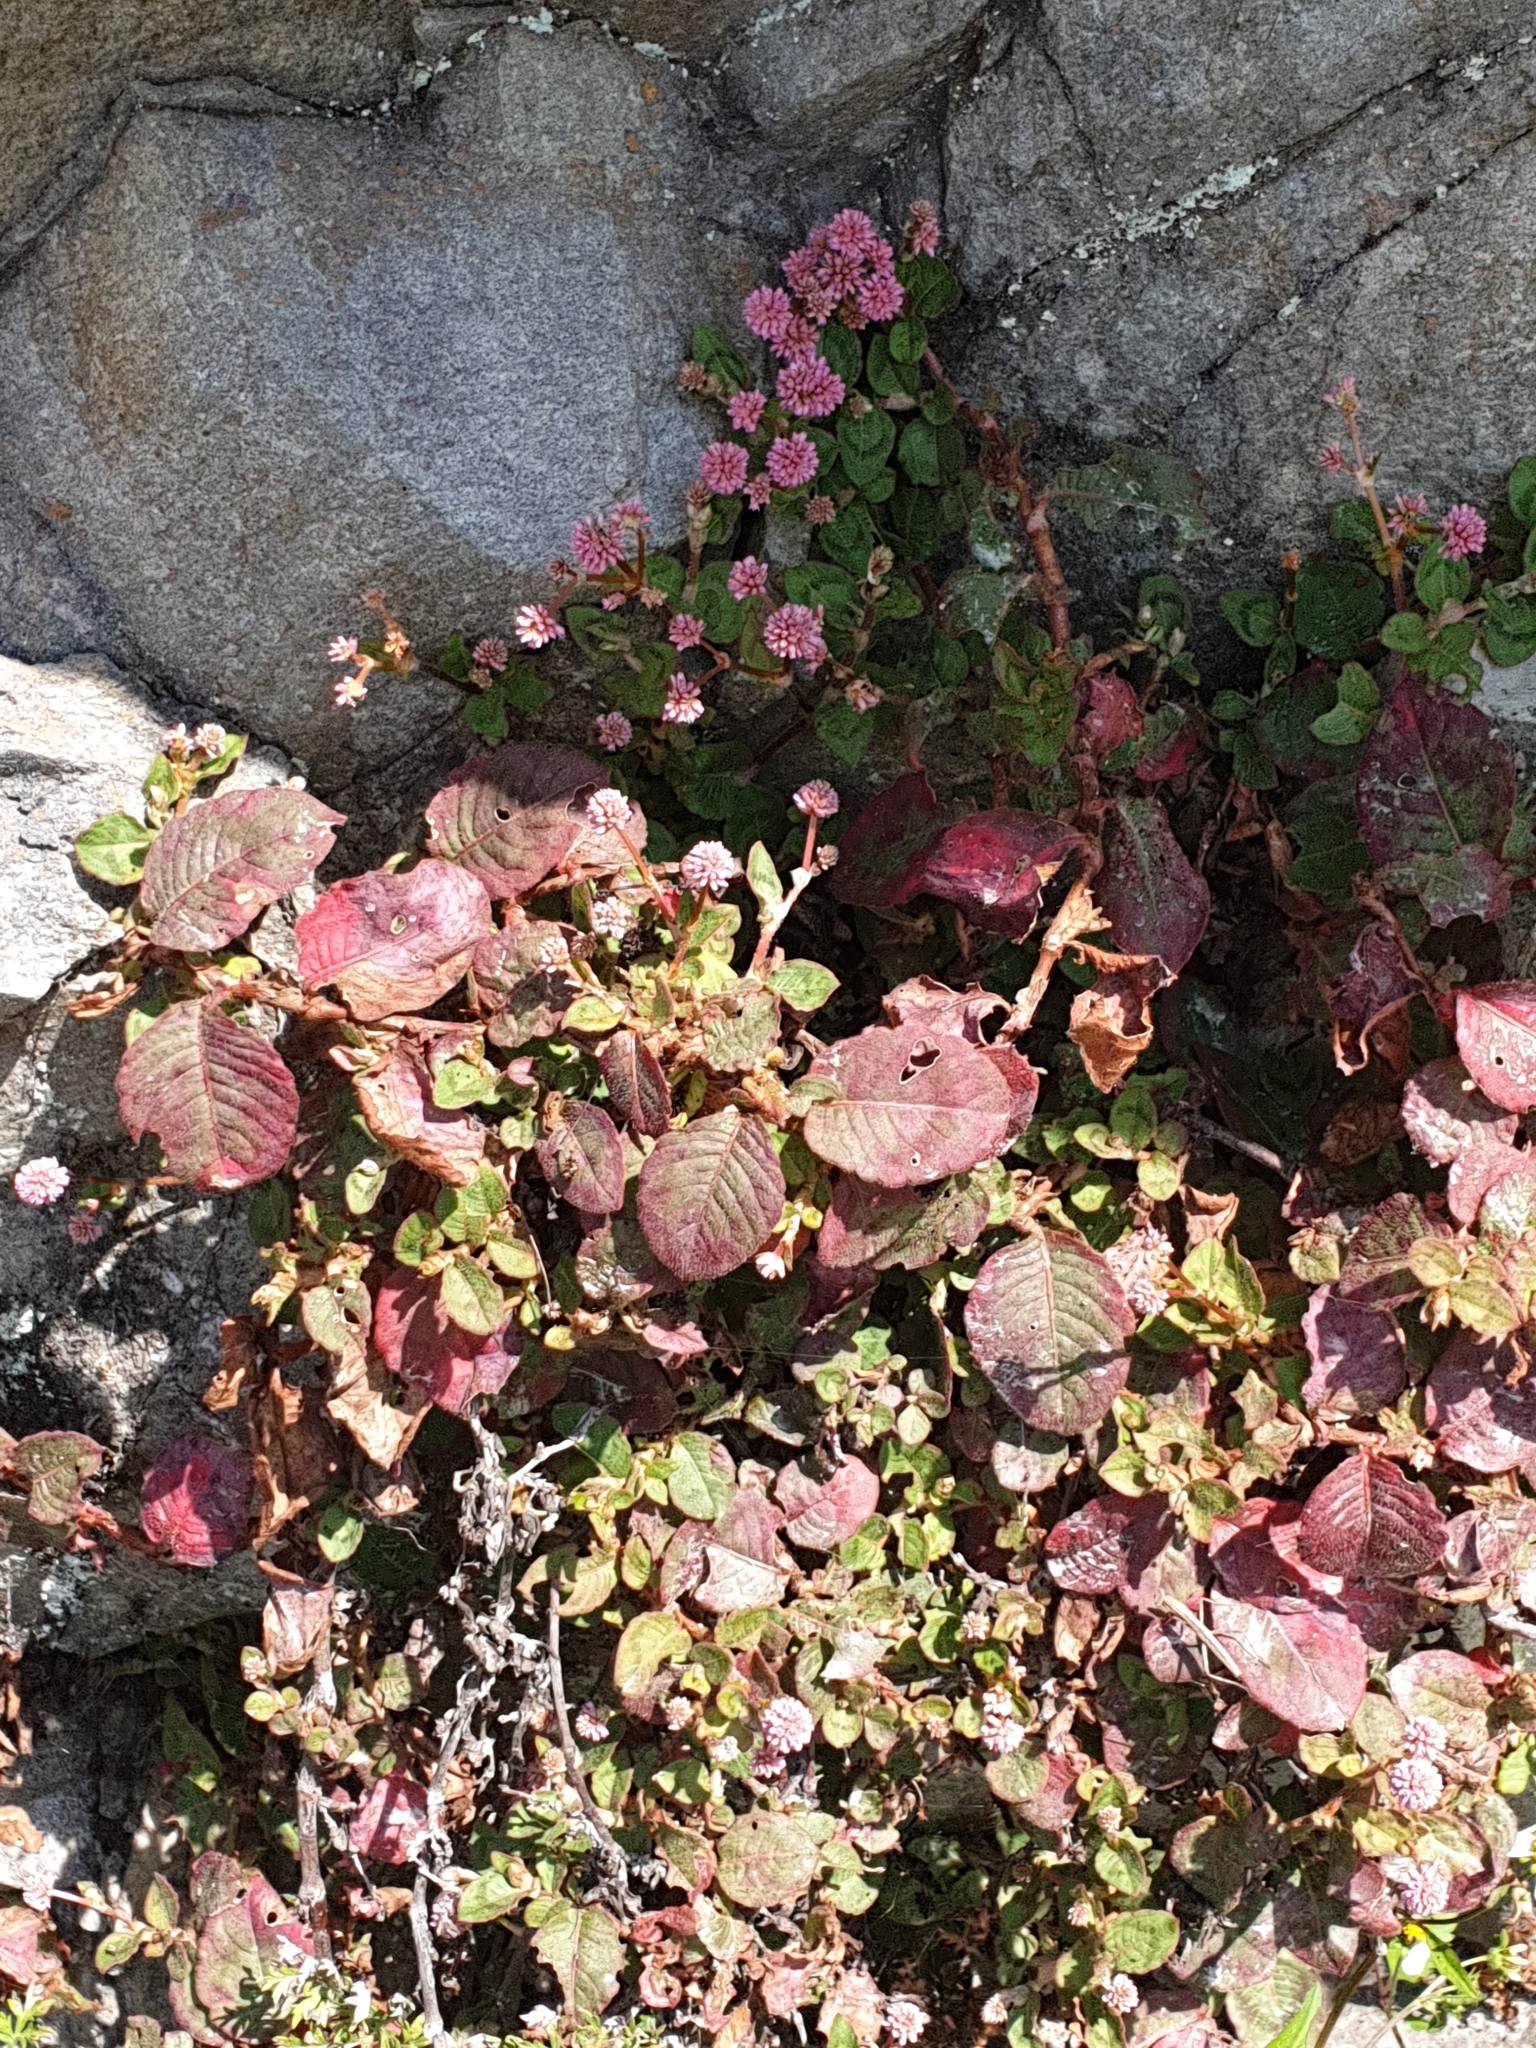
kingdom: Plantae
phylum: Tracheophyta
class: Magnoliopsida
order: Caryophyllales
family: Polygonaceae
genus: Persicaria
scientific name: Persicaria capitata
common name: Pinkhead smartweed
